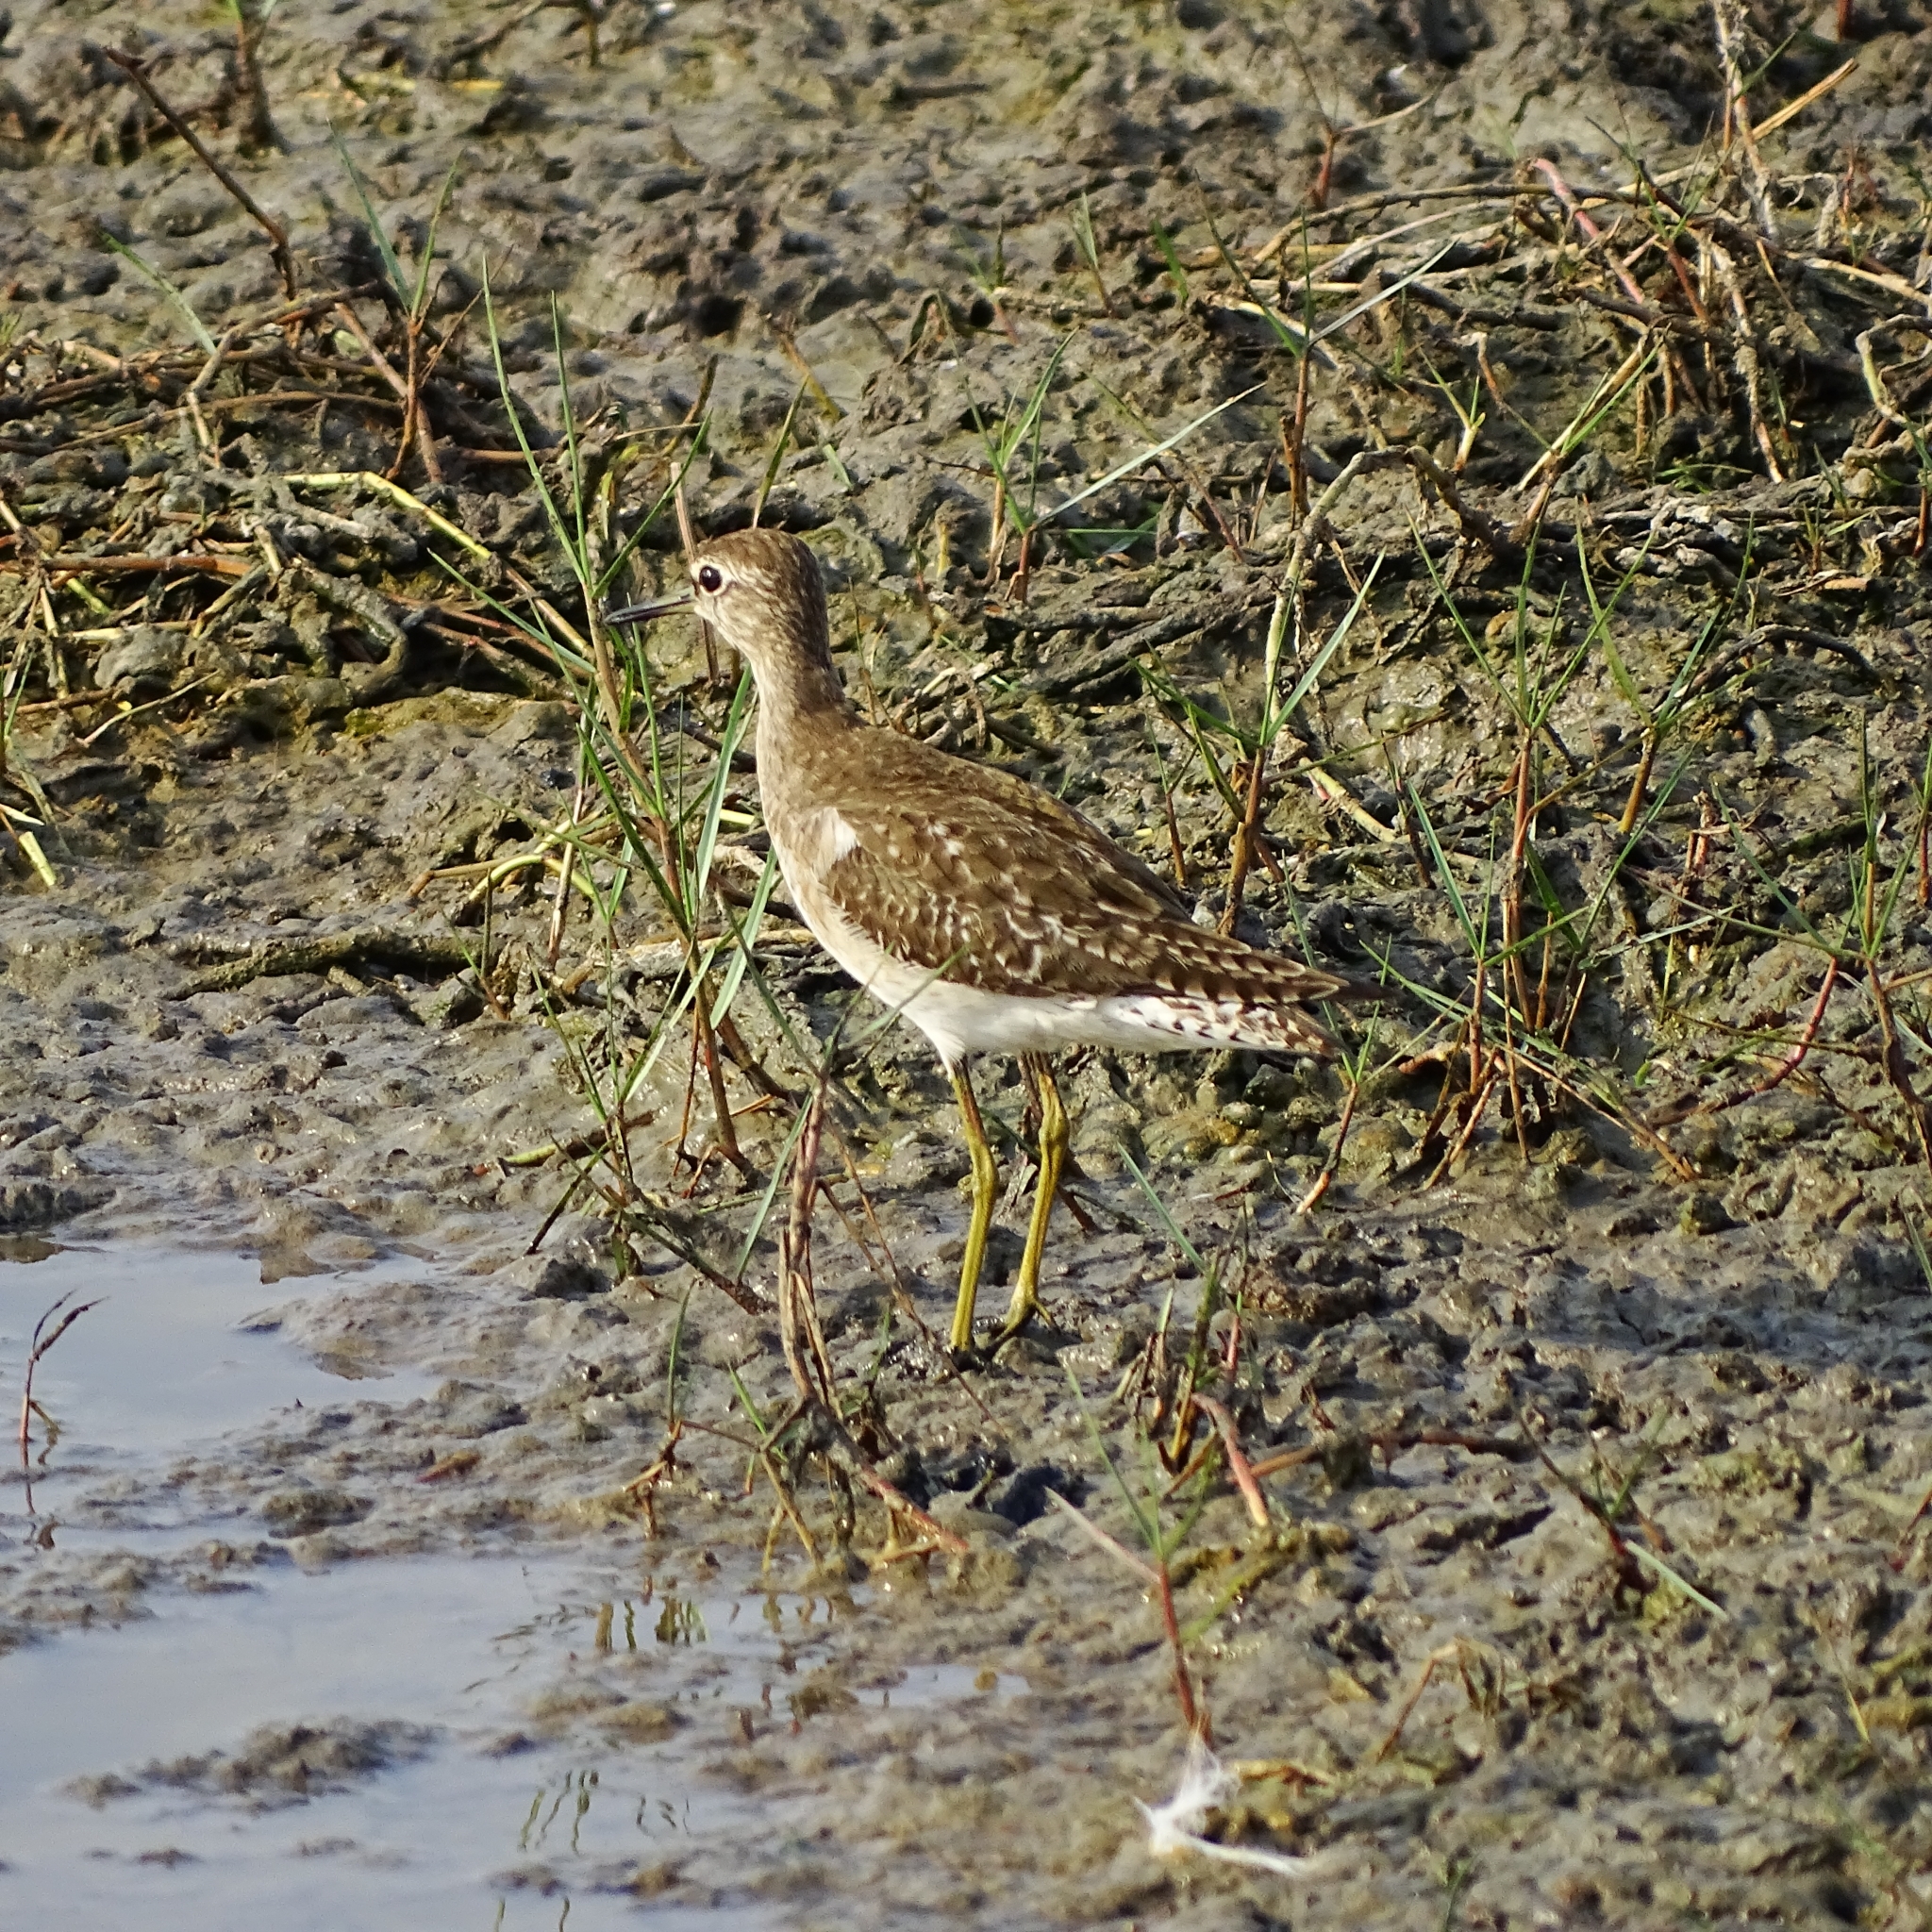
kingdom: Animalia
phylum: Chordata
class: Aves
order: Charadriiformes
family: Scolopacidae
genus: Tringa
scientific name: Tringa glareola
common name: Wood sandpiper
